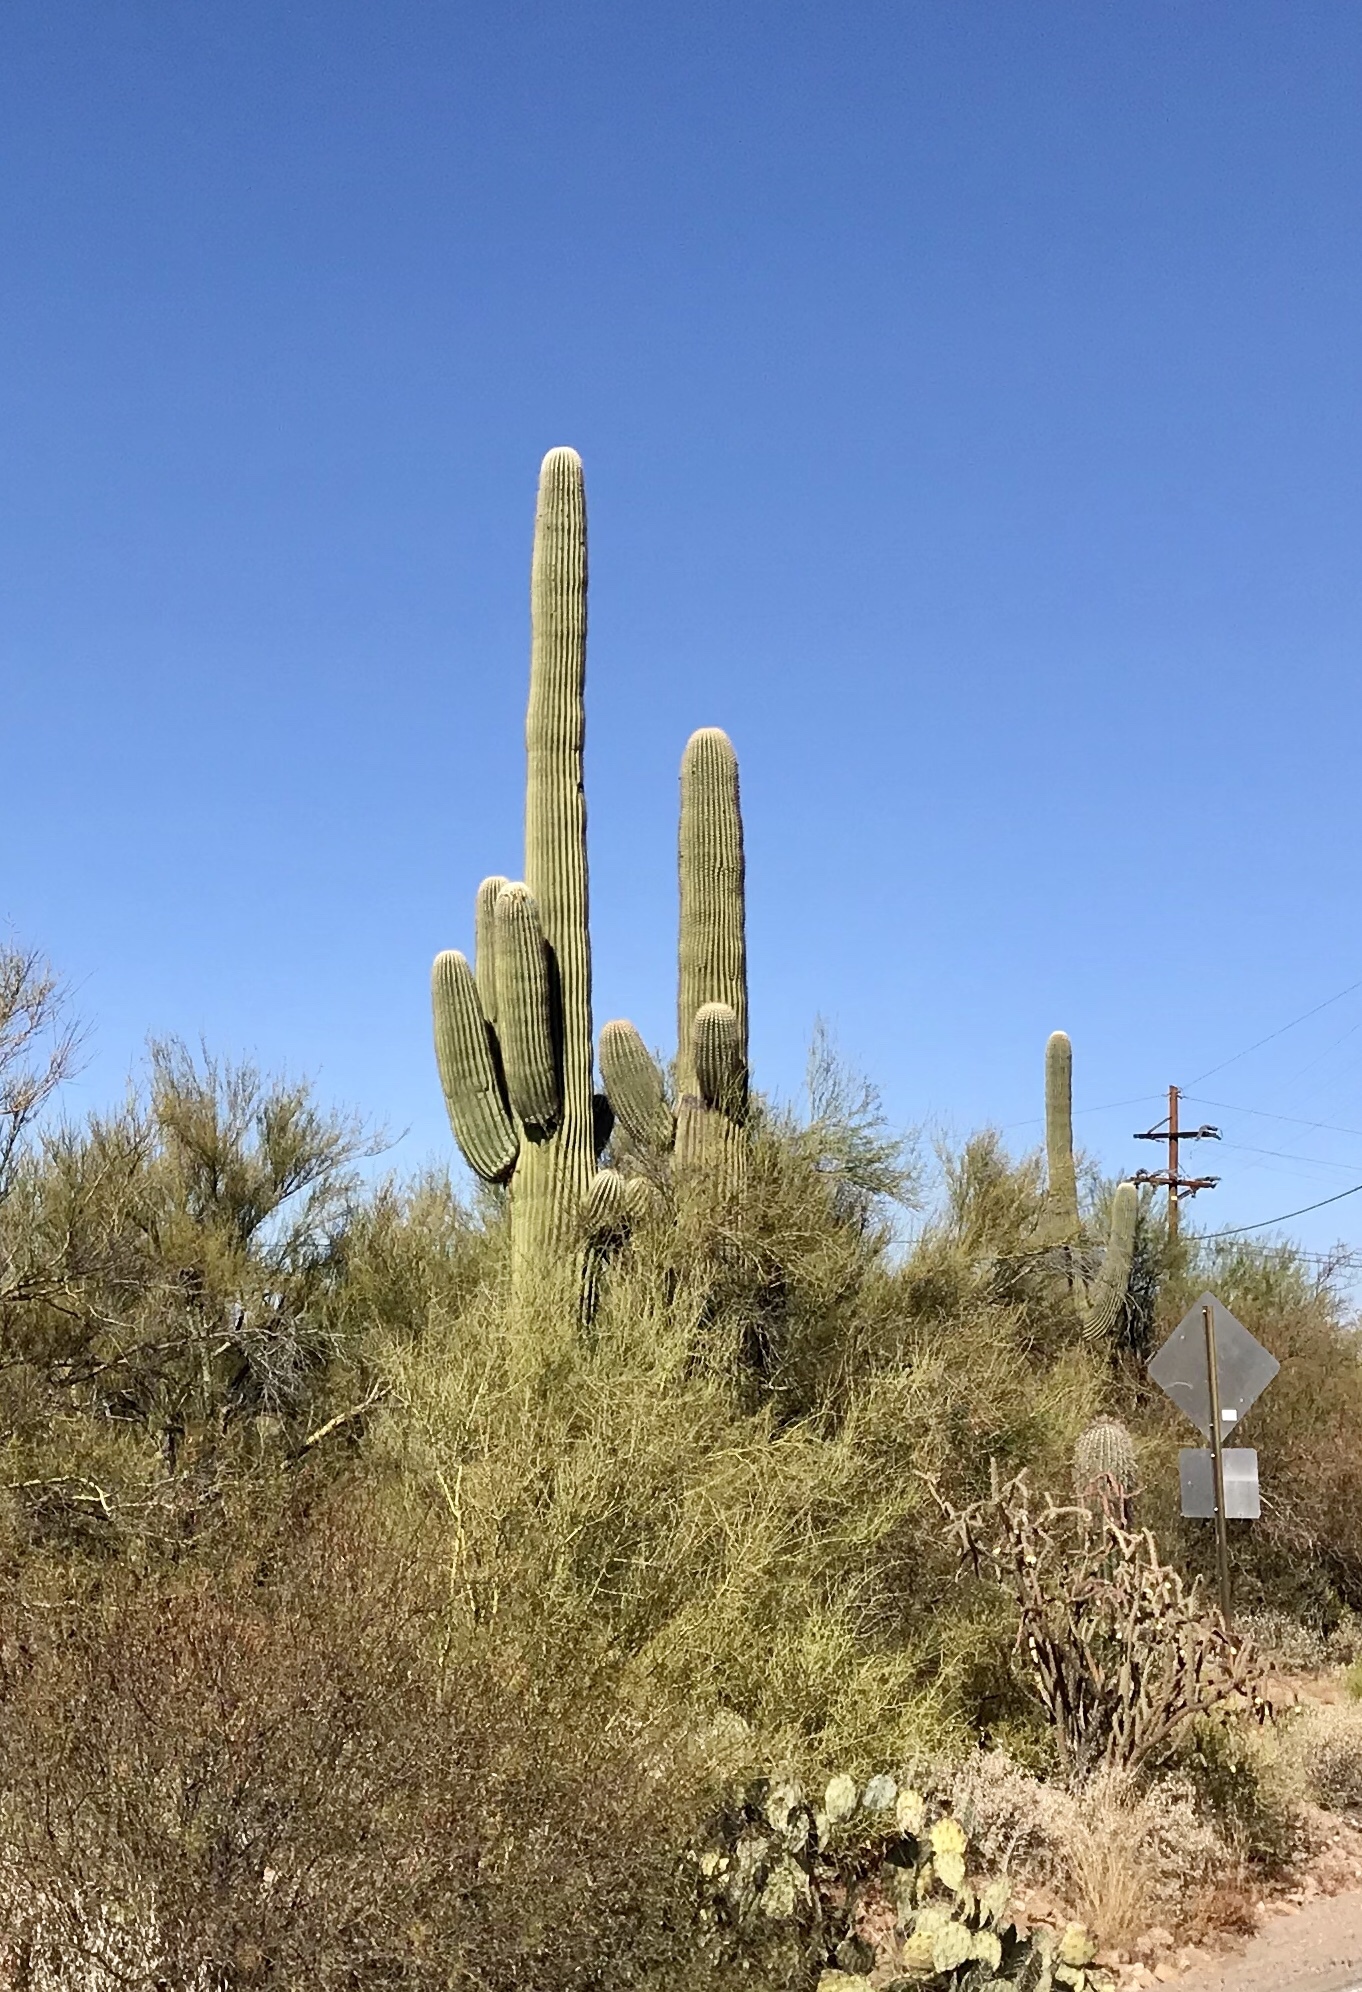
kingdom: Plantae
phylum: Tracheophyta
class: Magnoliopsida
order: Caryophyllales
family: Cactaceae
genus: Carnegiea
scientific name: Carnegiea gigantea
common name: Saguaro
